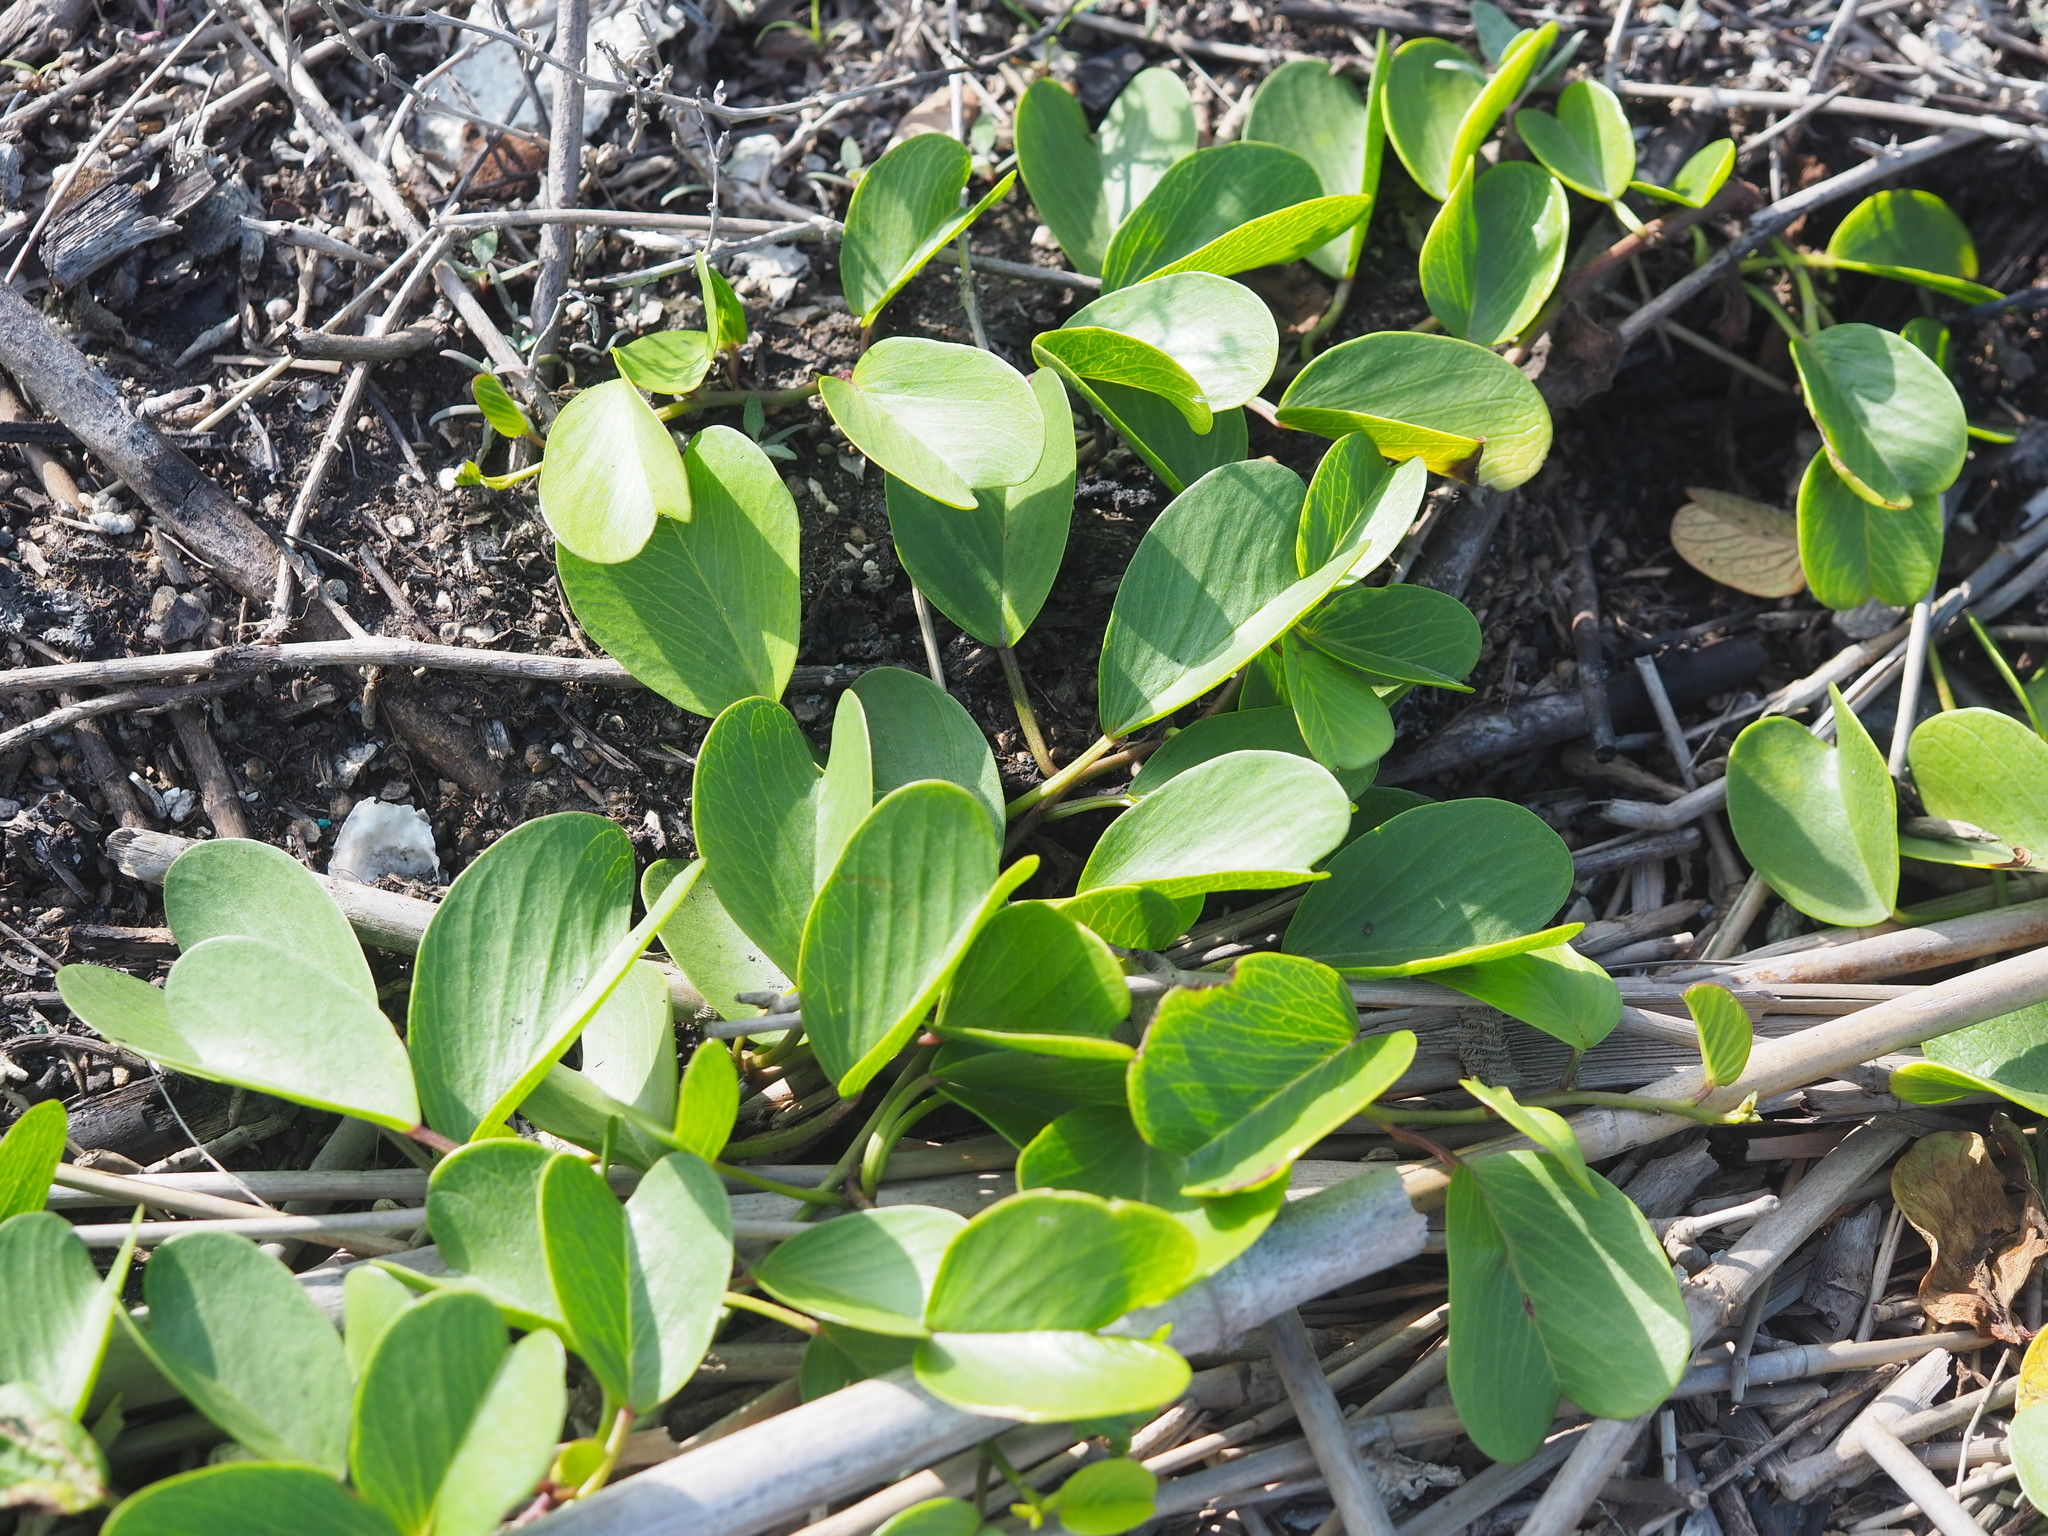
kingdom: Plantae
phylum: Tracheophyta
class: Magnoliopsida
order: Solanales
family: Convolvulaceae
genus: Ipomoea
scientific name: Ipomoea pes-caprae
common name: Beach morning glory
